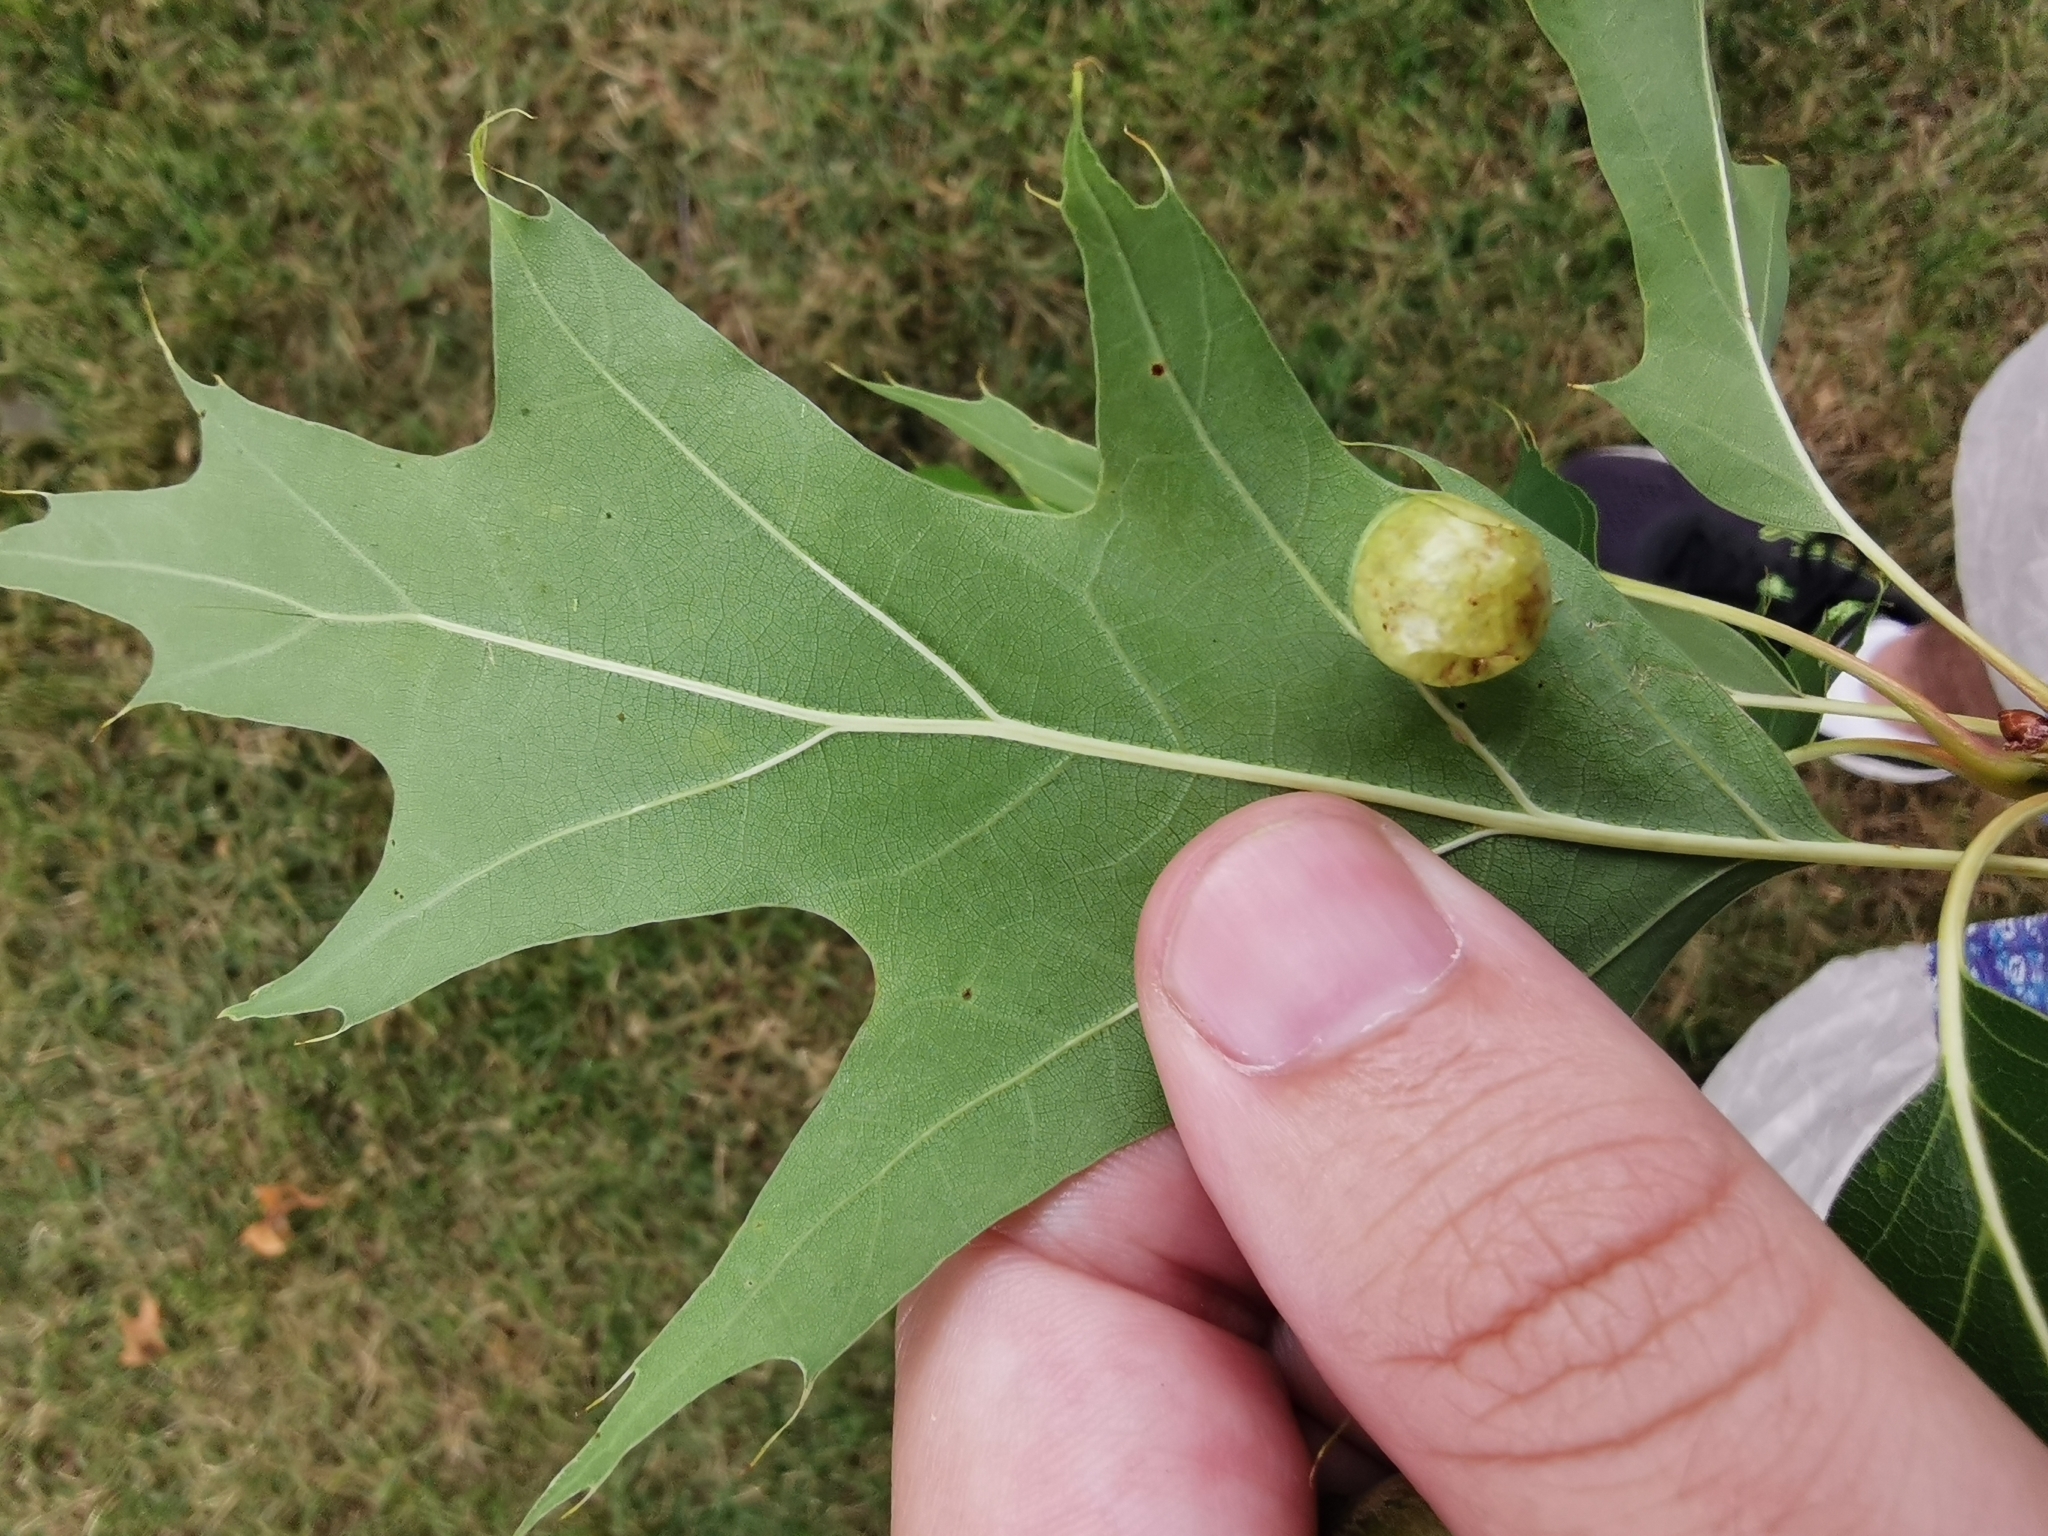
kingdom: Animalia
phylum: Arthropoda
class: Insecta
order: Hymenoptera
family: Cynipidae
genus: Amphibolips
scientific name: Amphibolips
